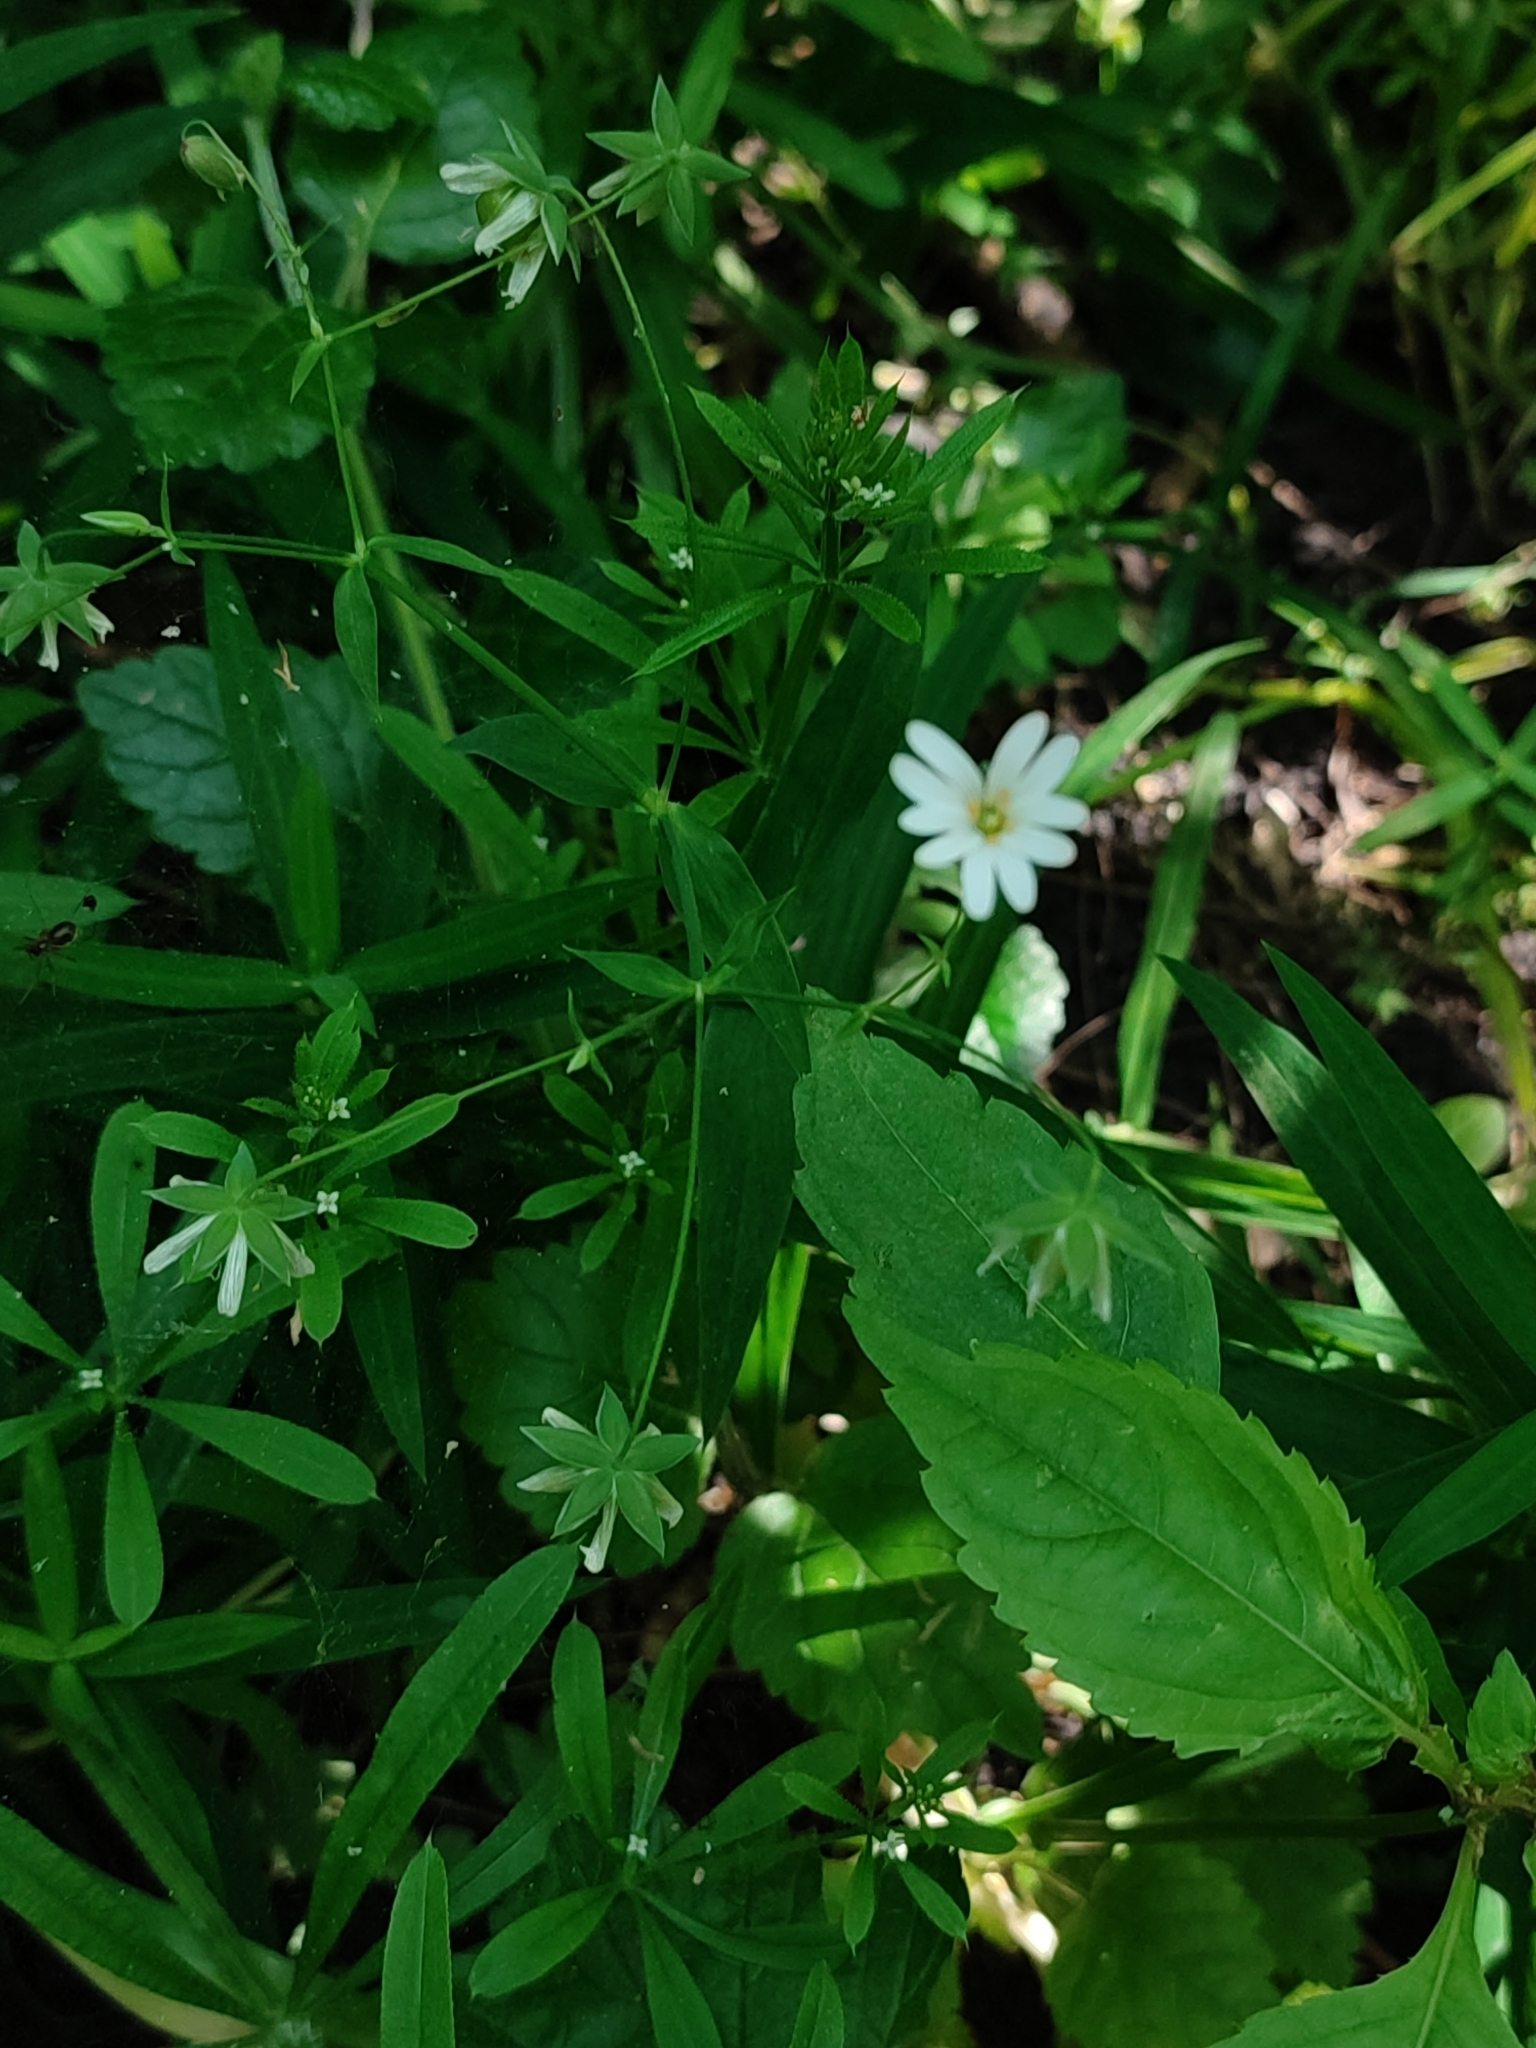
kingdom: Plantae
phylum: Tracheophyta
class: Magnoliopsida
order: Caryophyllales
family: Caryophyllaceae
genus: Rabelera
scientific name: Rabelera holostea
